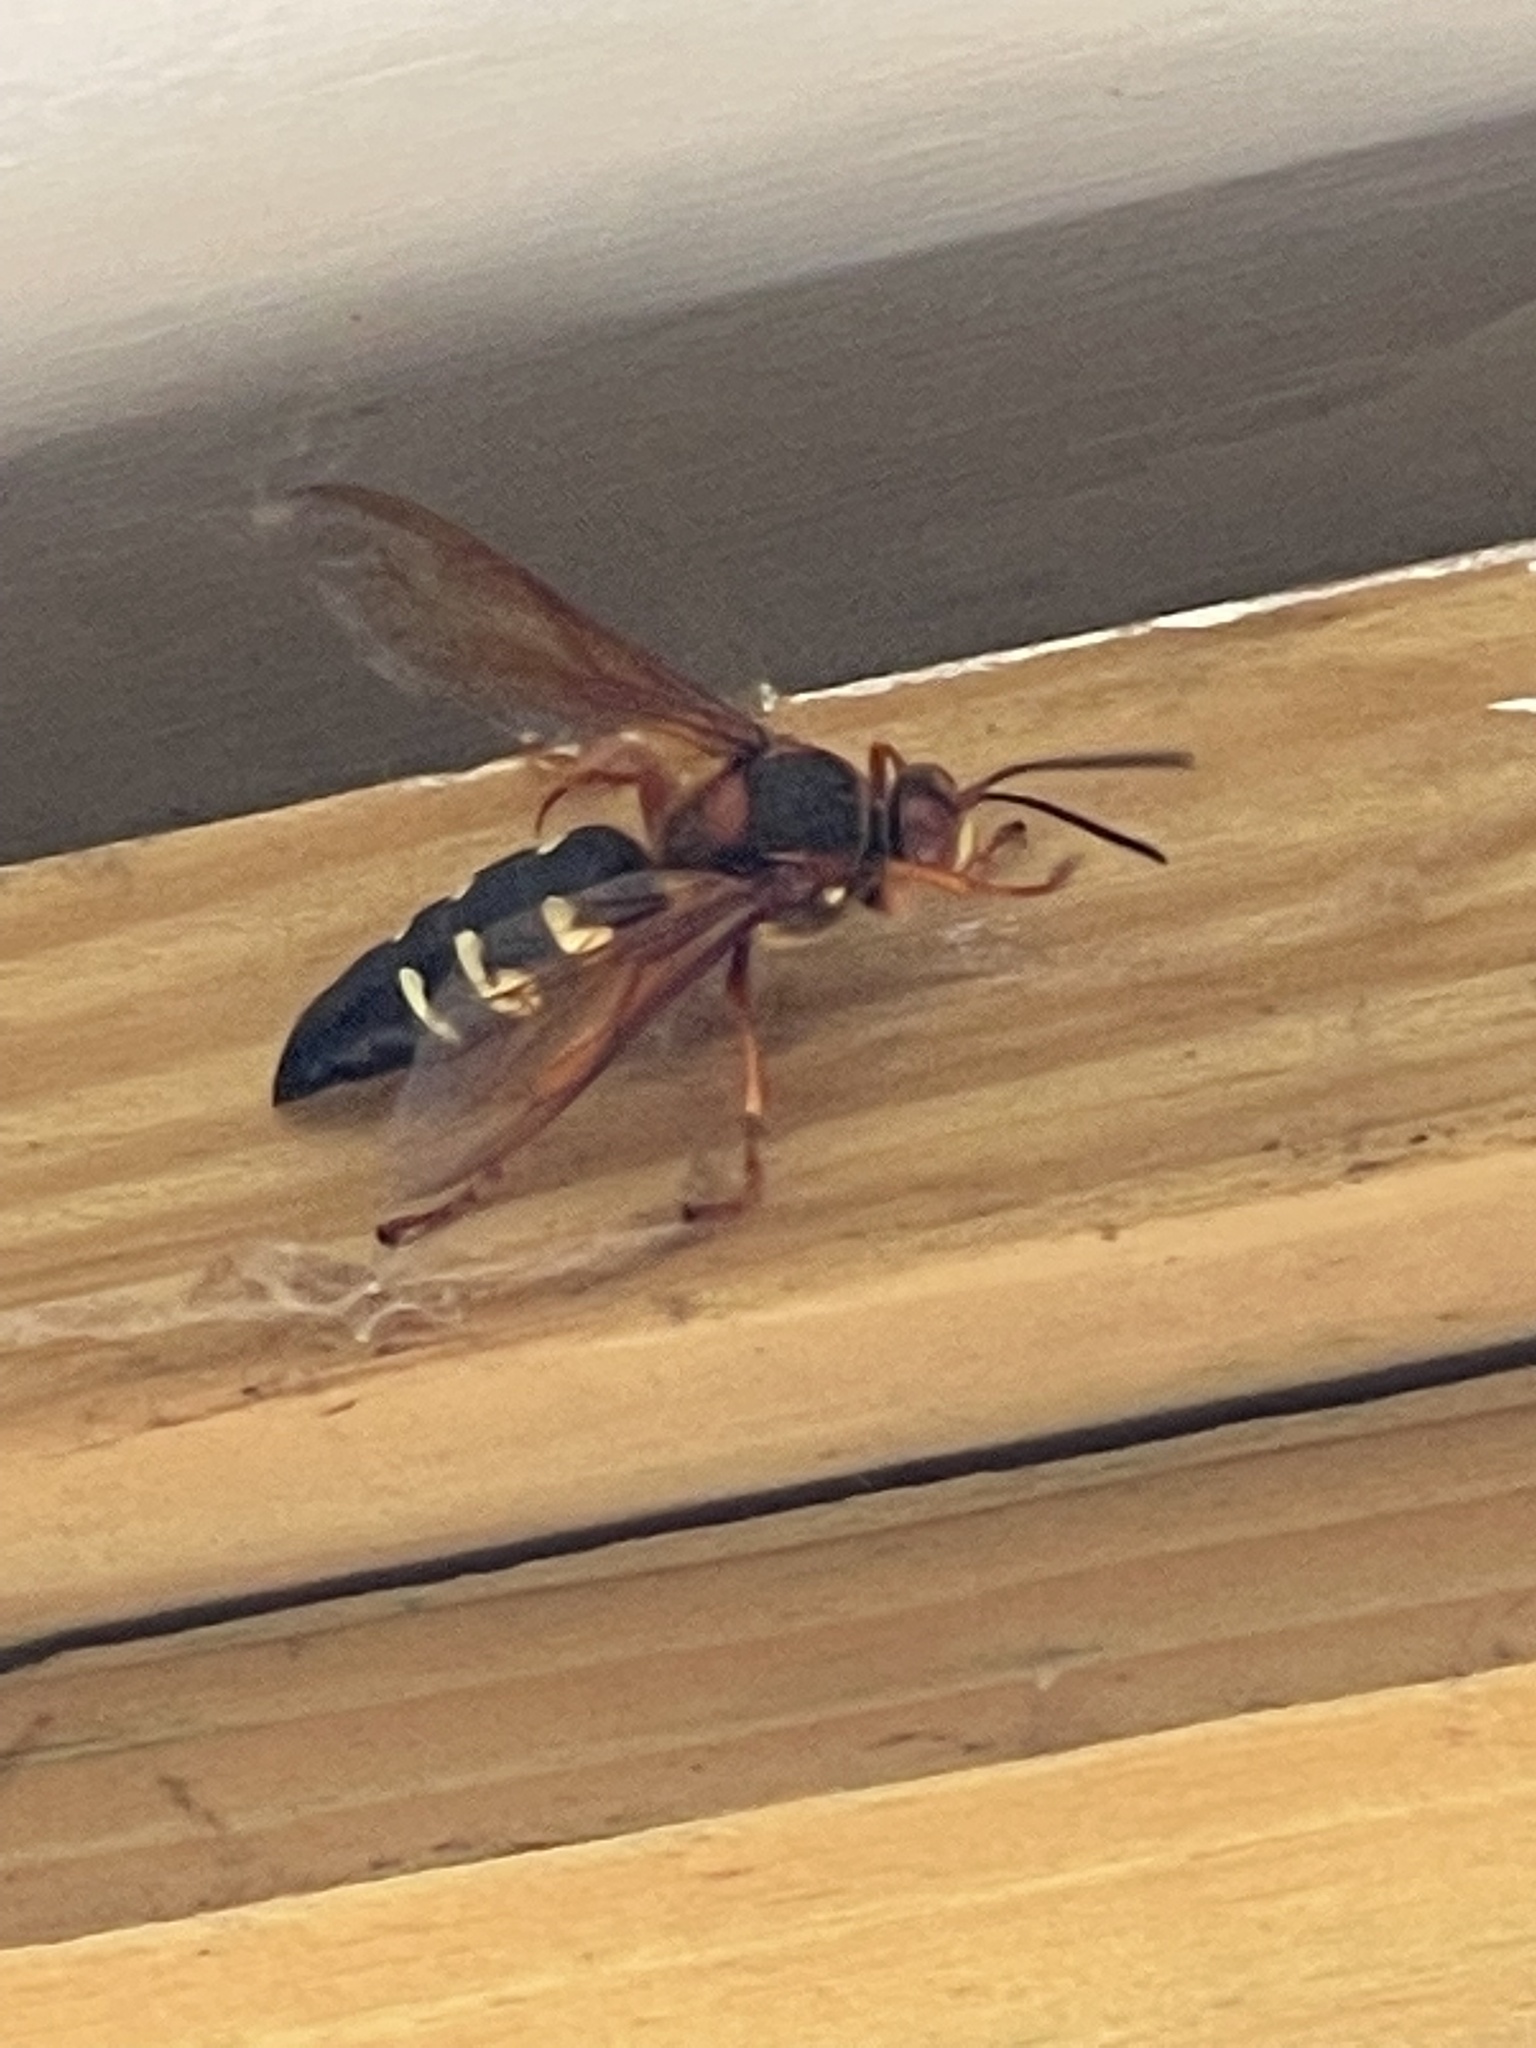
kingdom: Animalia
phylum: Arthropoda
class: Insecta
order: Hymenoptera
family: Crabronidae
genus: Sphecius
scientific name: Sphecius speciosus
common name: Cicada killer
